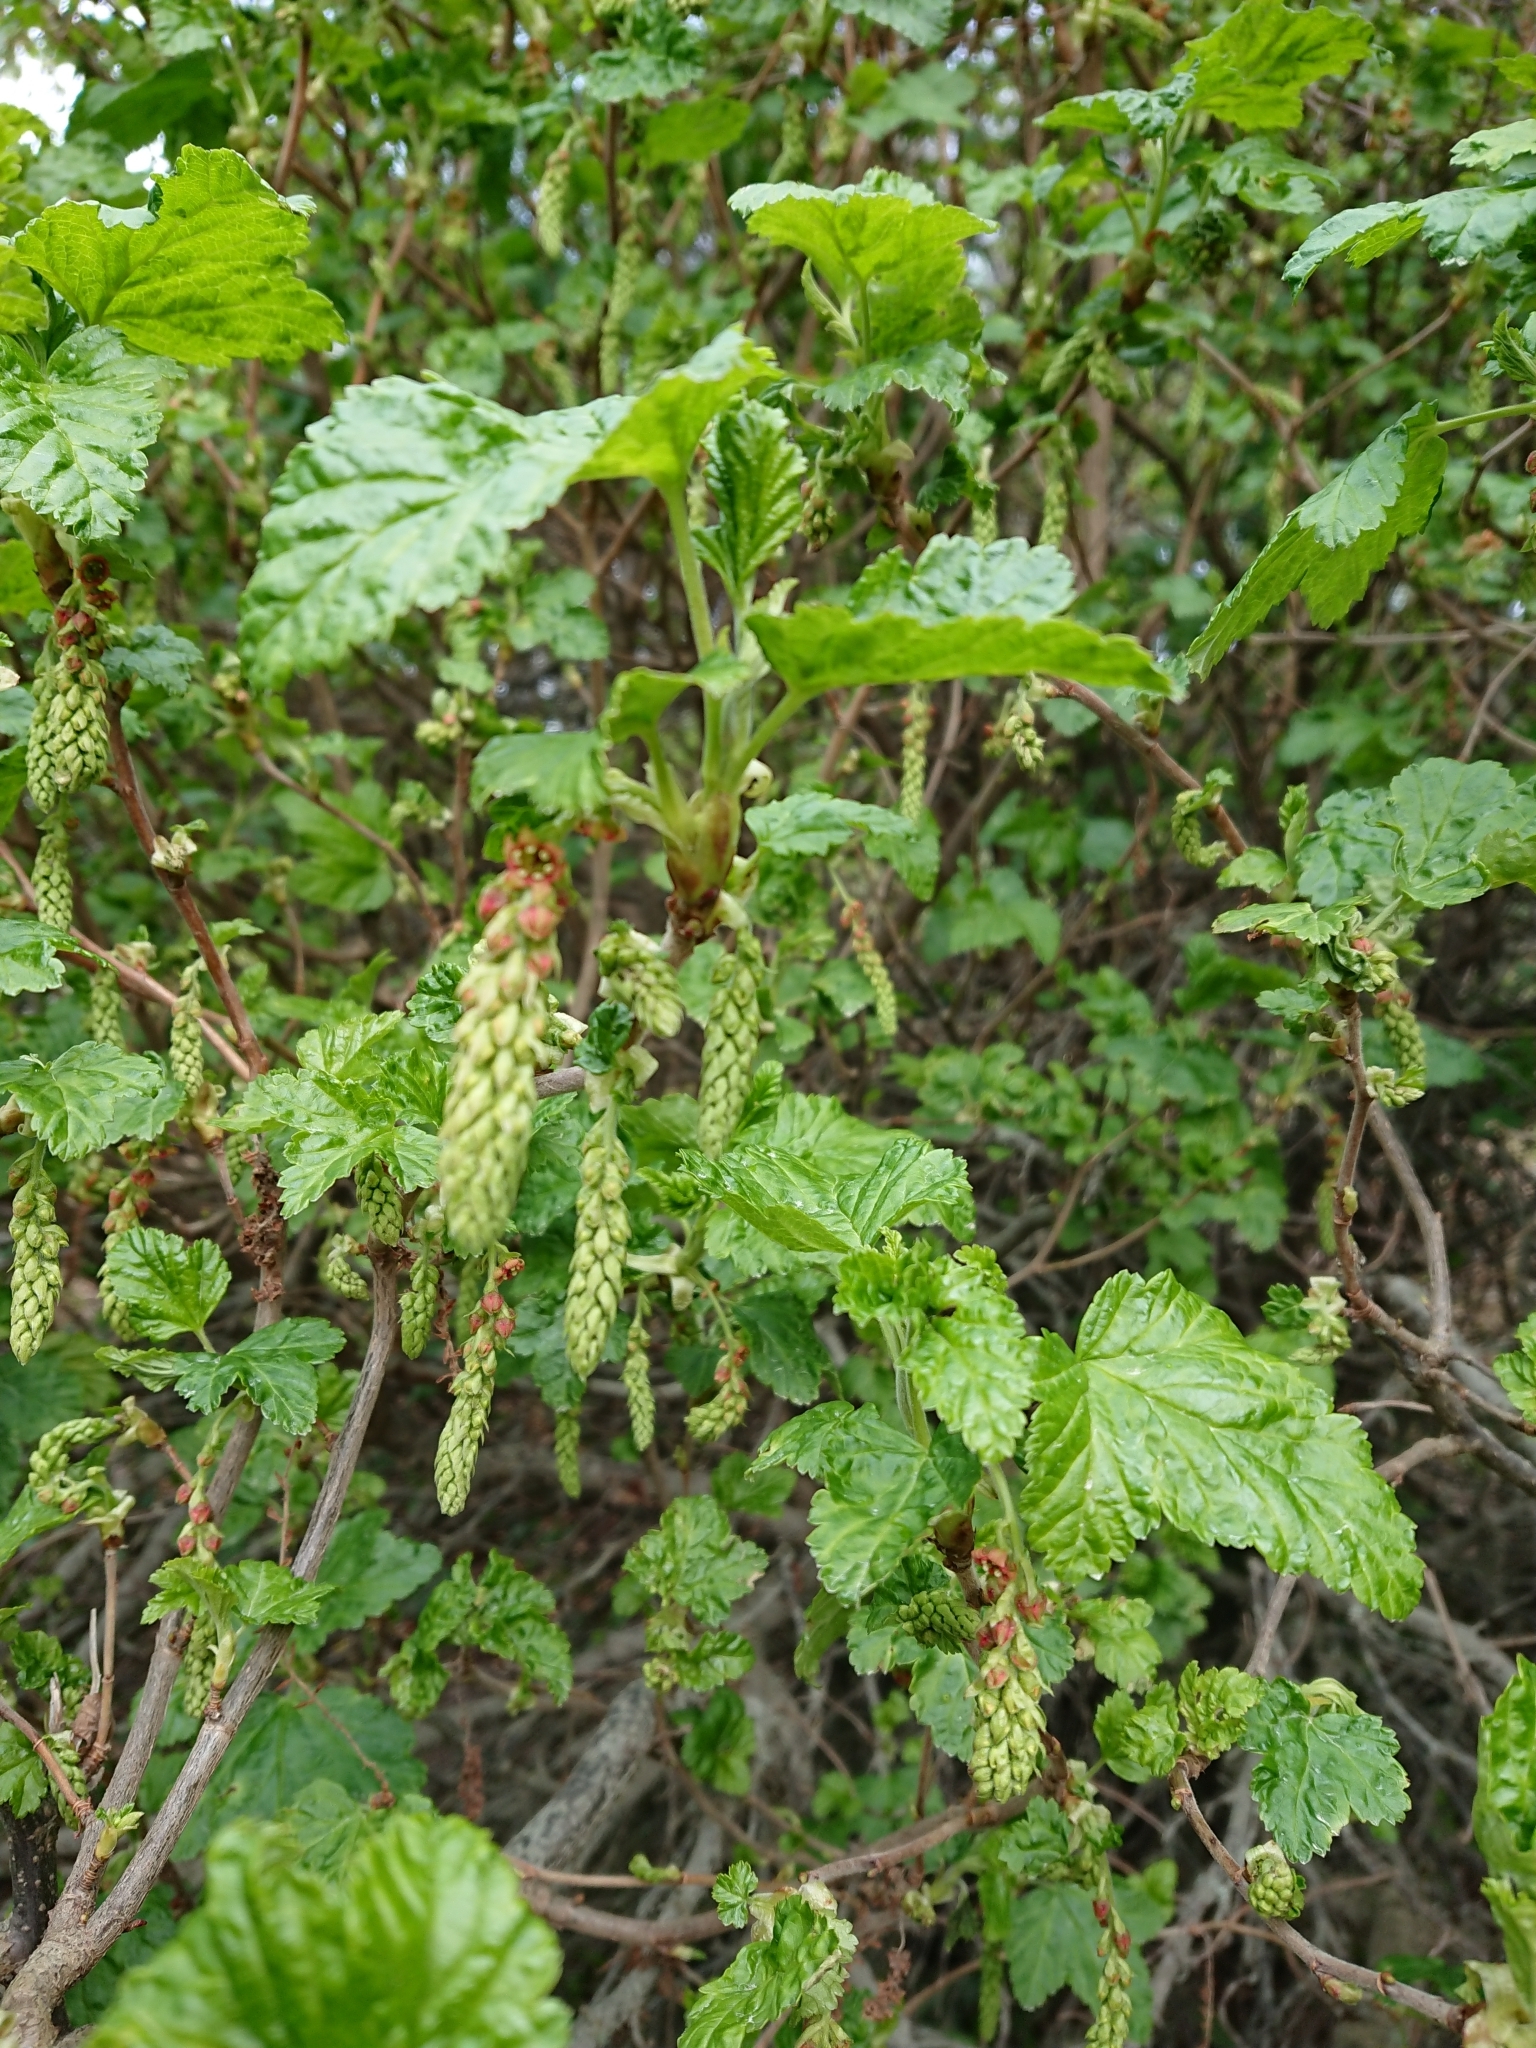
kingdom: Plantae
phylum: Tracheophyta
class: Magnoliopsida
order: Saxifragales
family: Grossulariaceae
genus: Ribes
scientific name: Ribes magellanicum
